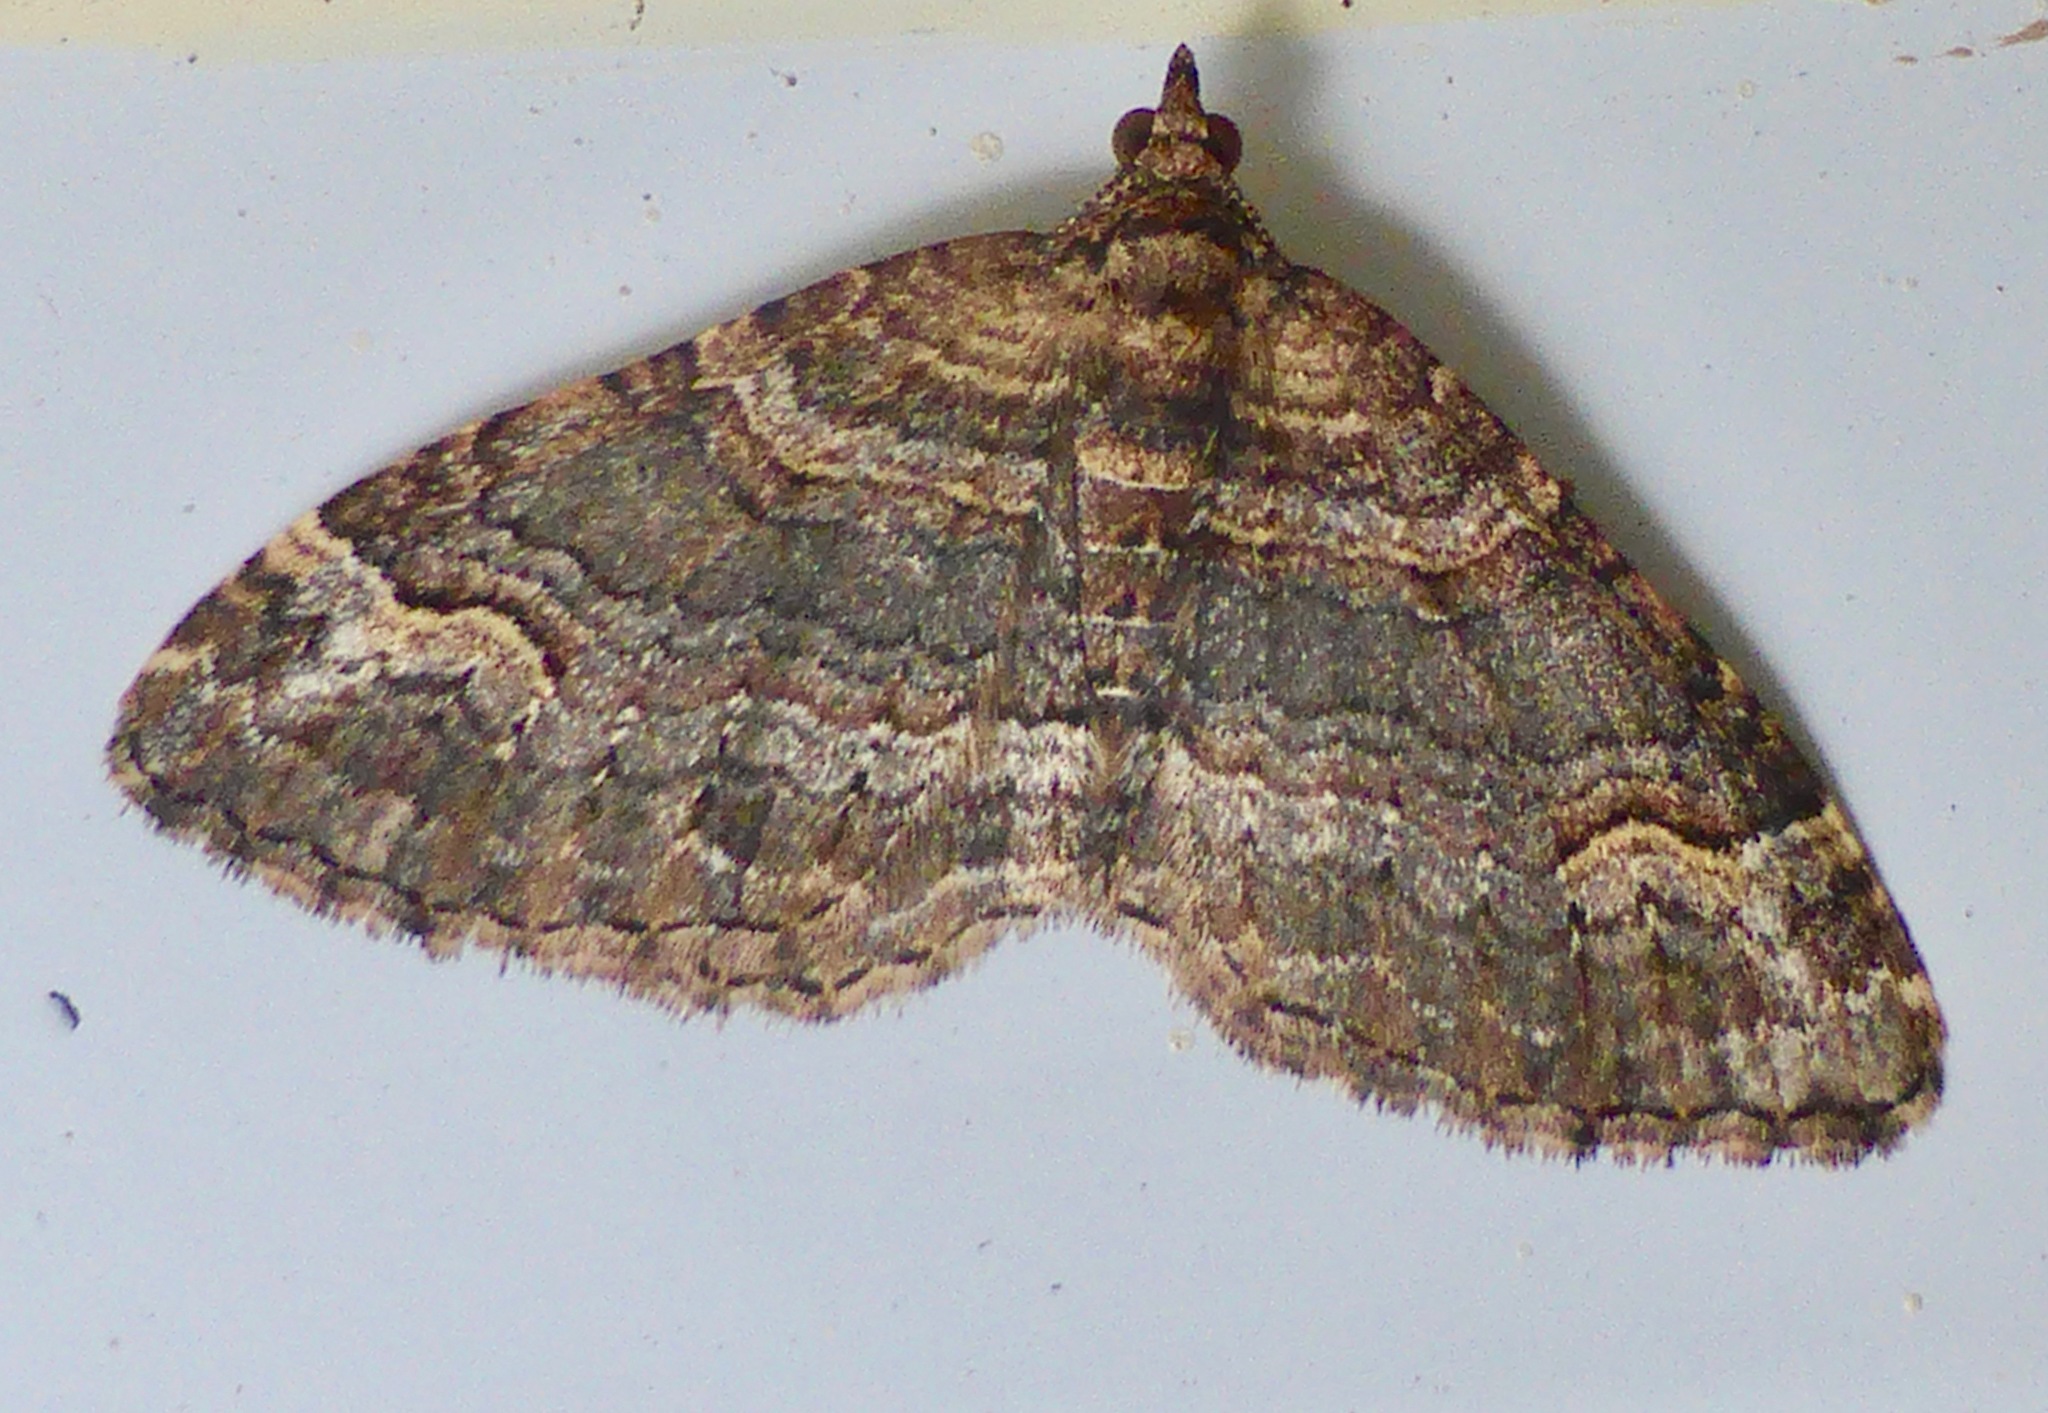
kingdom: Animalia
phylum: Arthropoda
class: Insecta
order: Lepidoptera
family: Geometridae
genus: Epyaxa
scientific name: Epyaxa lucidata
